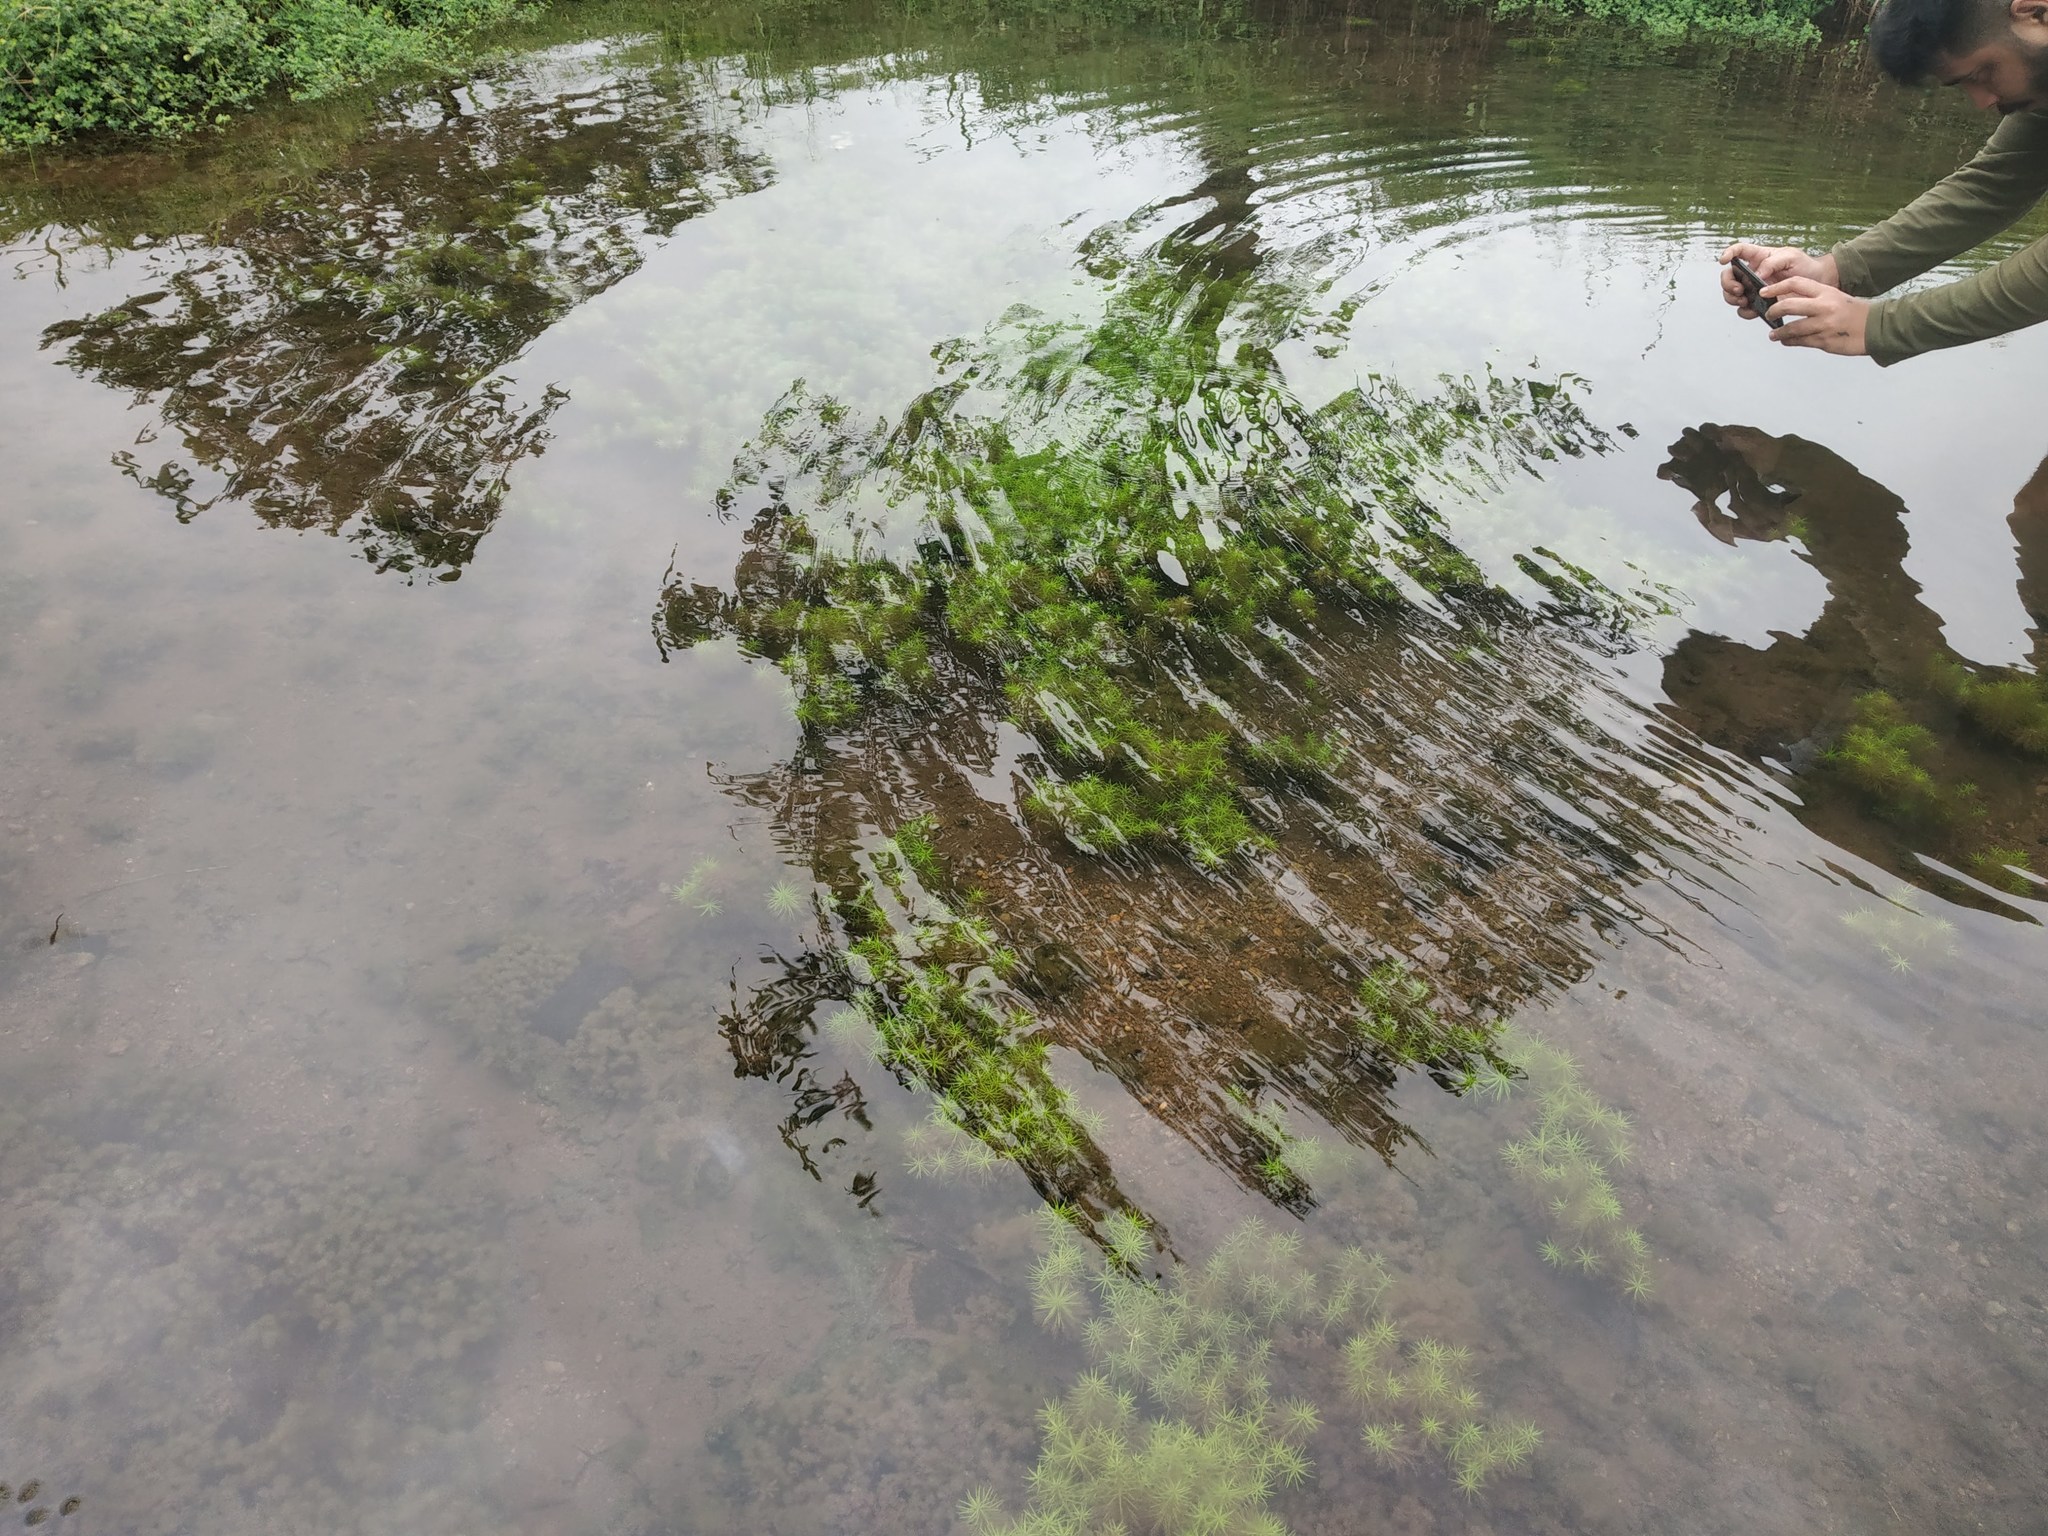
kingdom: Plantae
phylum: Tracheophyta
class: Magnoliopsida
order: Lamiales
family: Lamiaceae
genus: Pogostemon
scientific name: Pogostemon deccanensis
